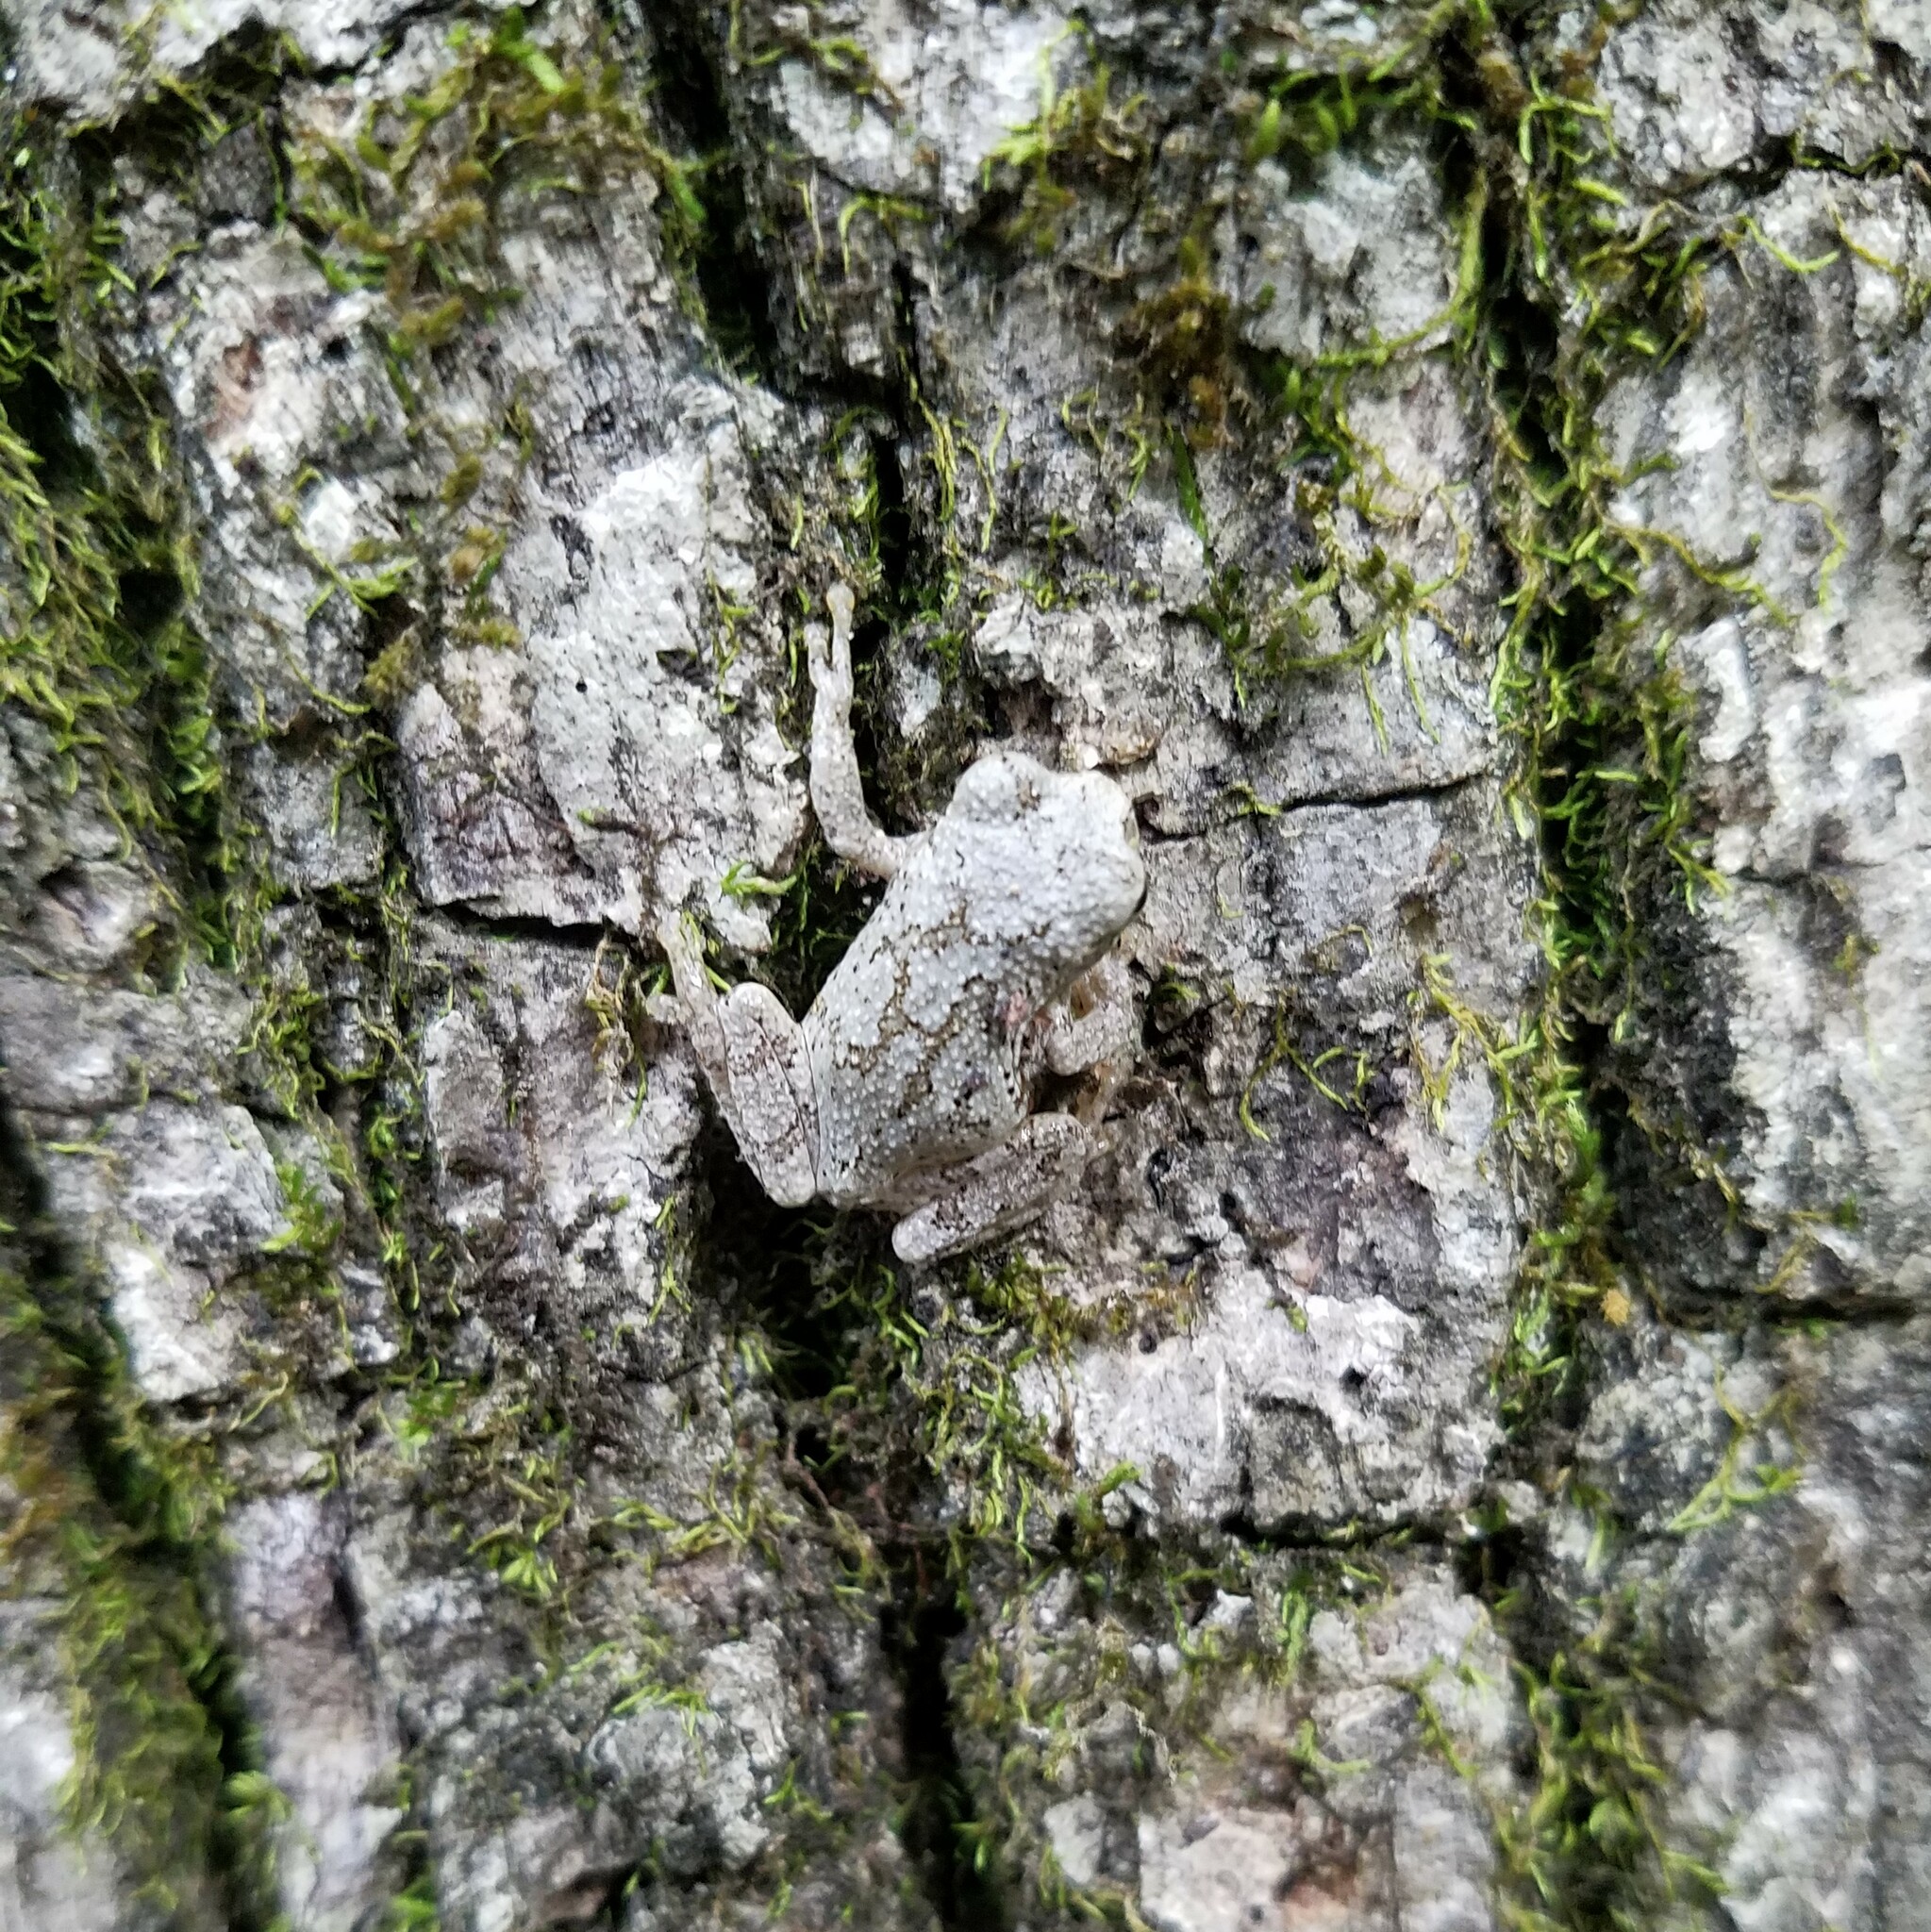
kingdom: Animalia
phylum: Chordata
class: Amphibia
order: Anura
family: Hylidae
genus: Dryophytes
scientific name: Dryophytes chrysoscelis
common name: Cope's gray treefrog
